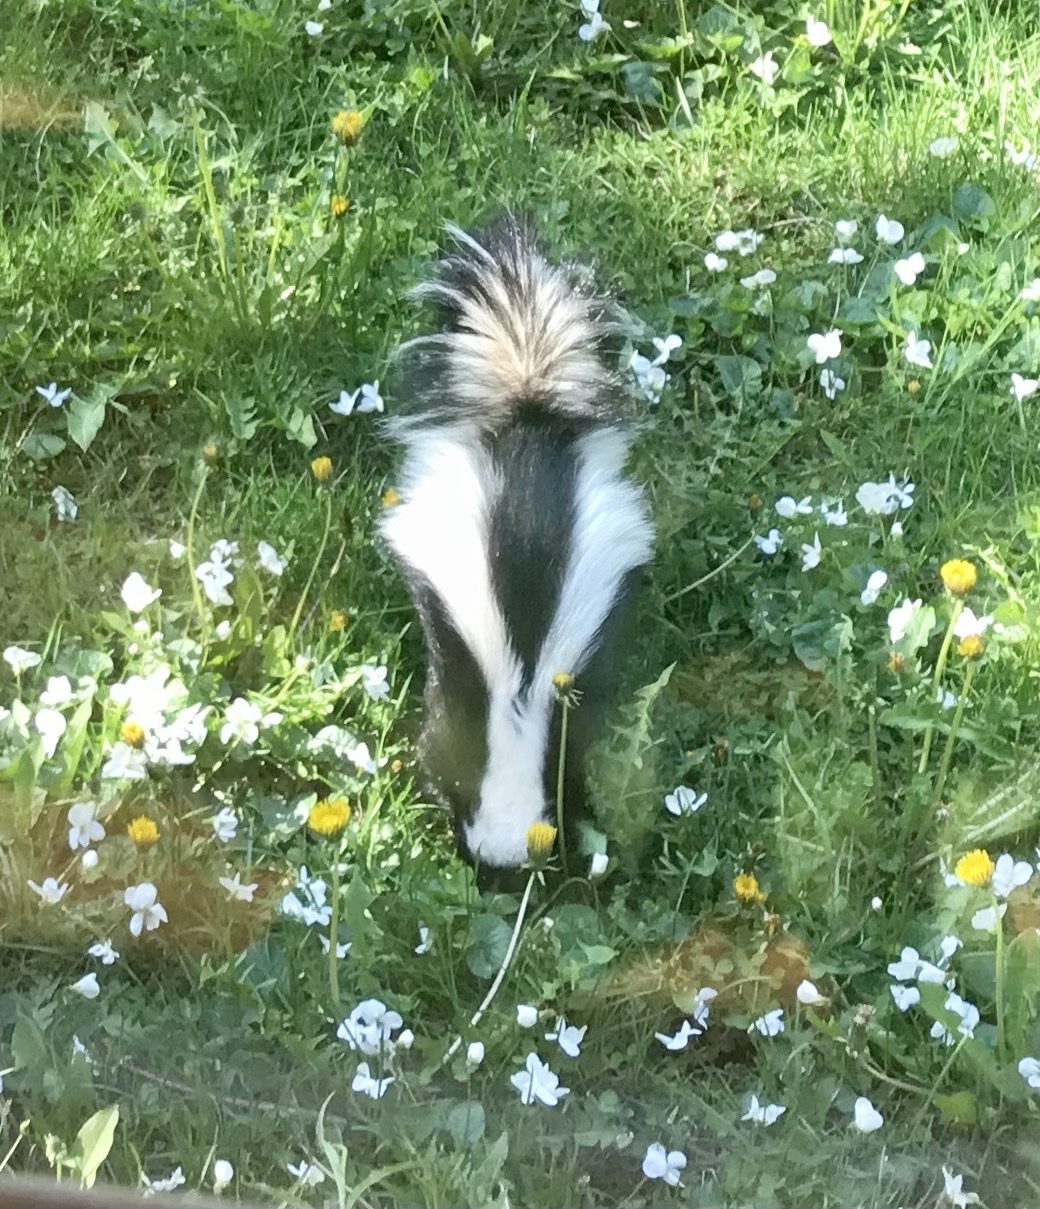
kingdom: Animalia
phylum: Chordata
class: Mammalia
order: Carnivora
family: Mephitidae
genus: Mephitis
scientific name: Mephitis mephitis
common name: Striped skunk
